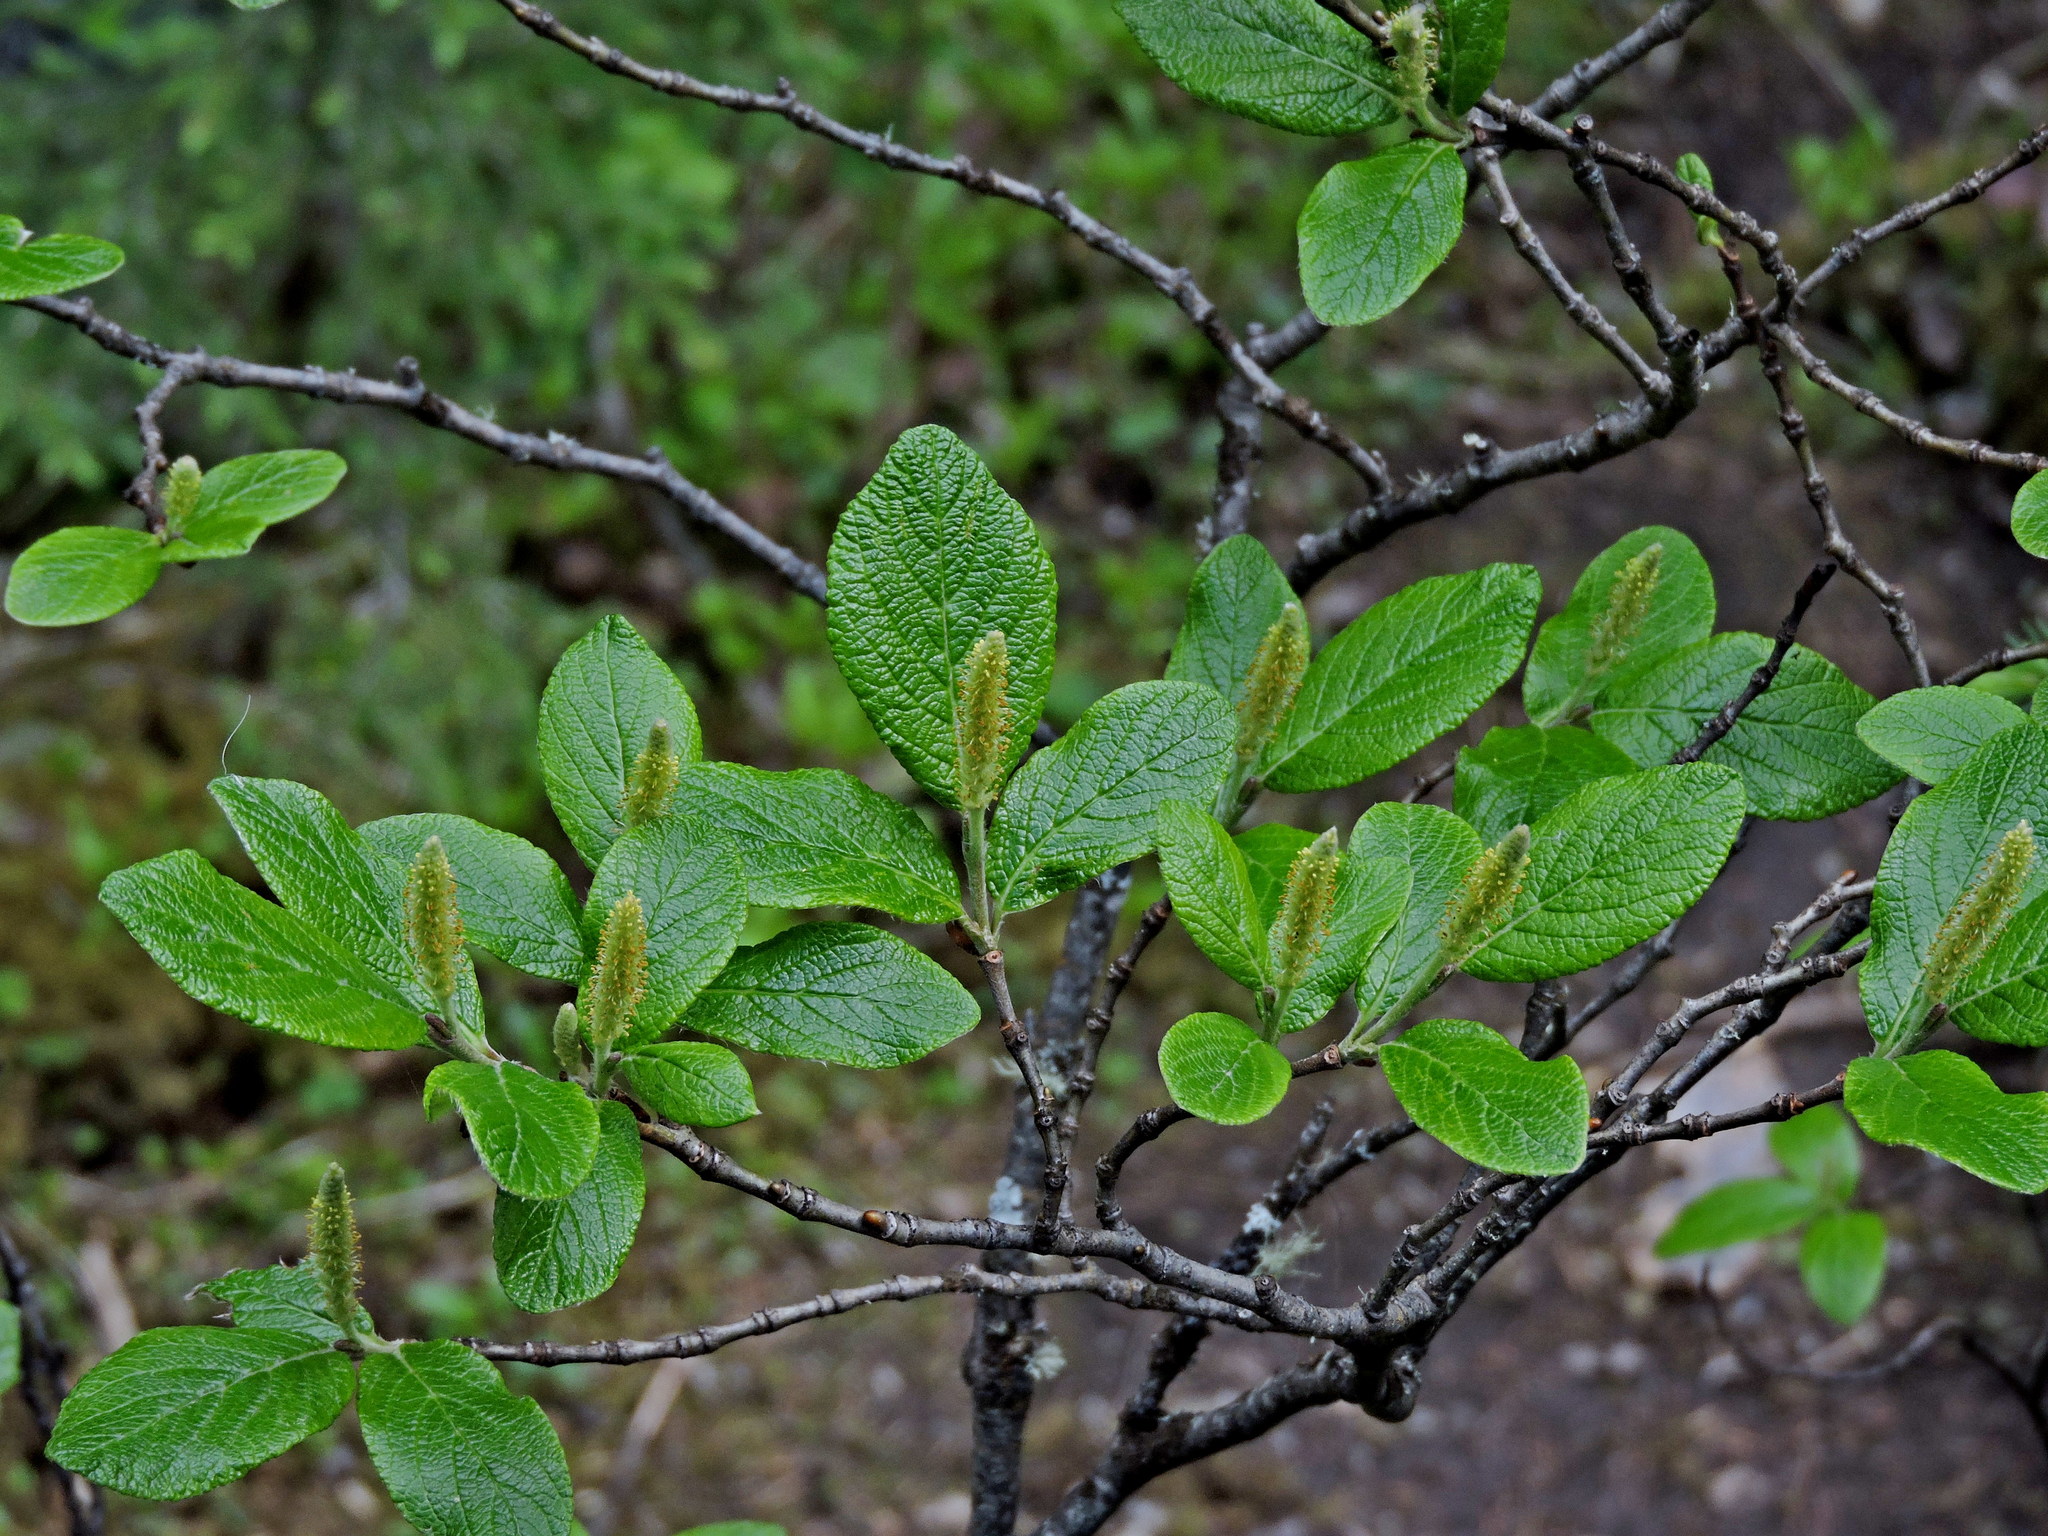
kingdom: Plantae
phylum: Tracheophyta
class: Magnoliopsida
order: Malpighiales
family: Salicaceae
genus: Salix
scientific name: Salix vestita
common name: Hairy willow
